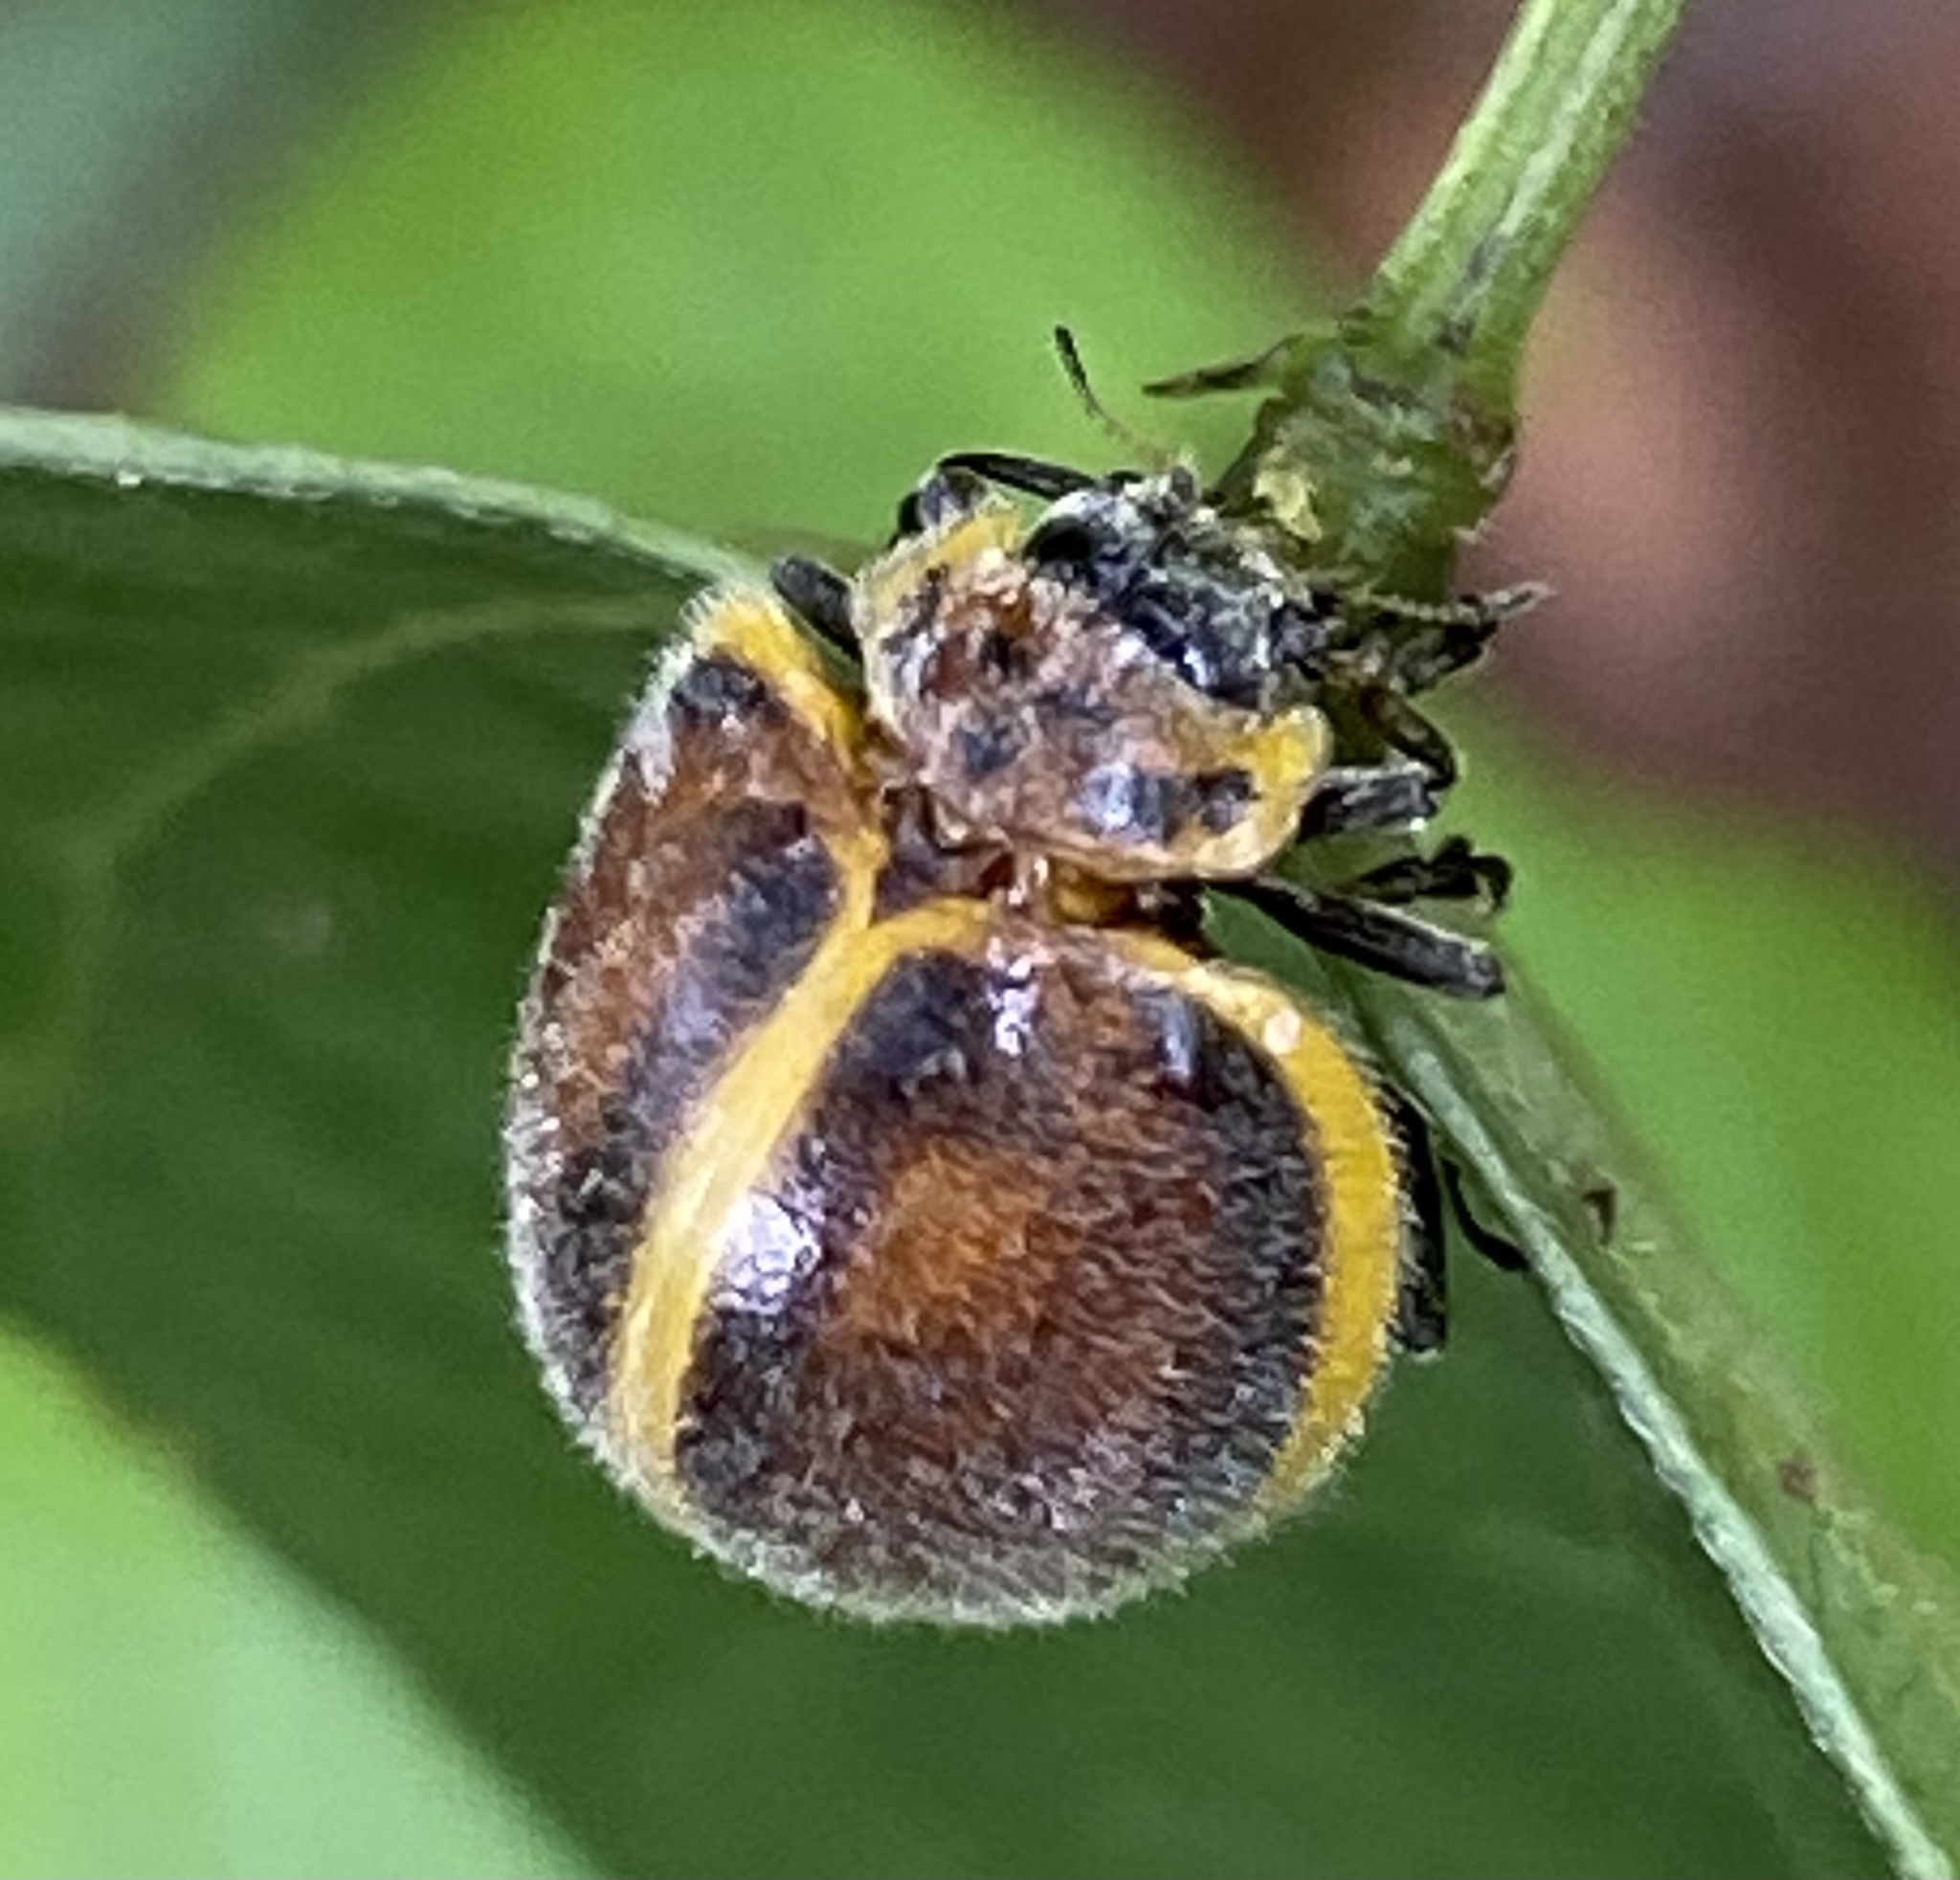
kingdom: Animalia
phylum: Arthropoda
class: Insecta
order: Coleoptera
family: Coccinellidae
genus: Epilachna
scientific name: Epilachna
